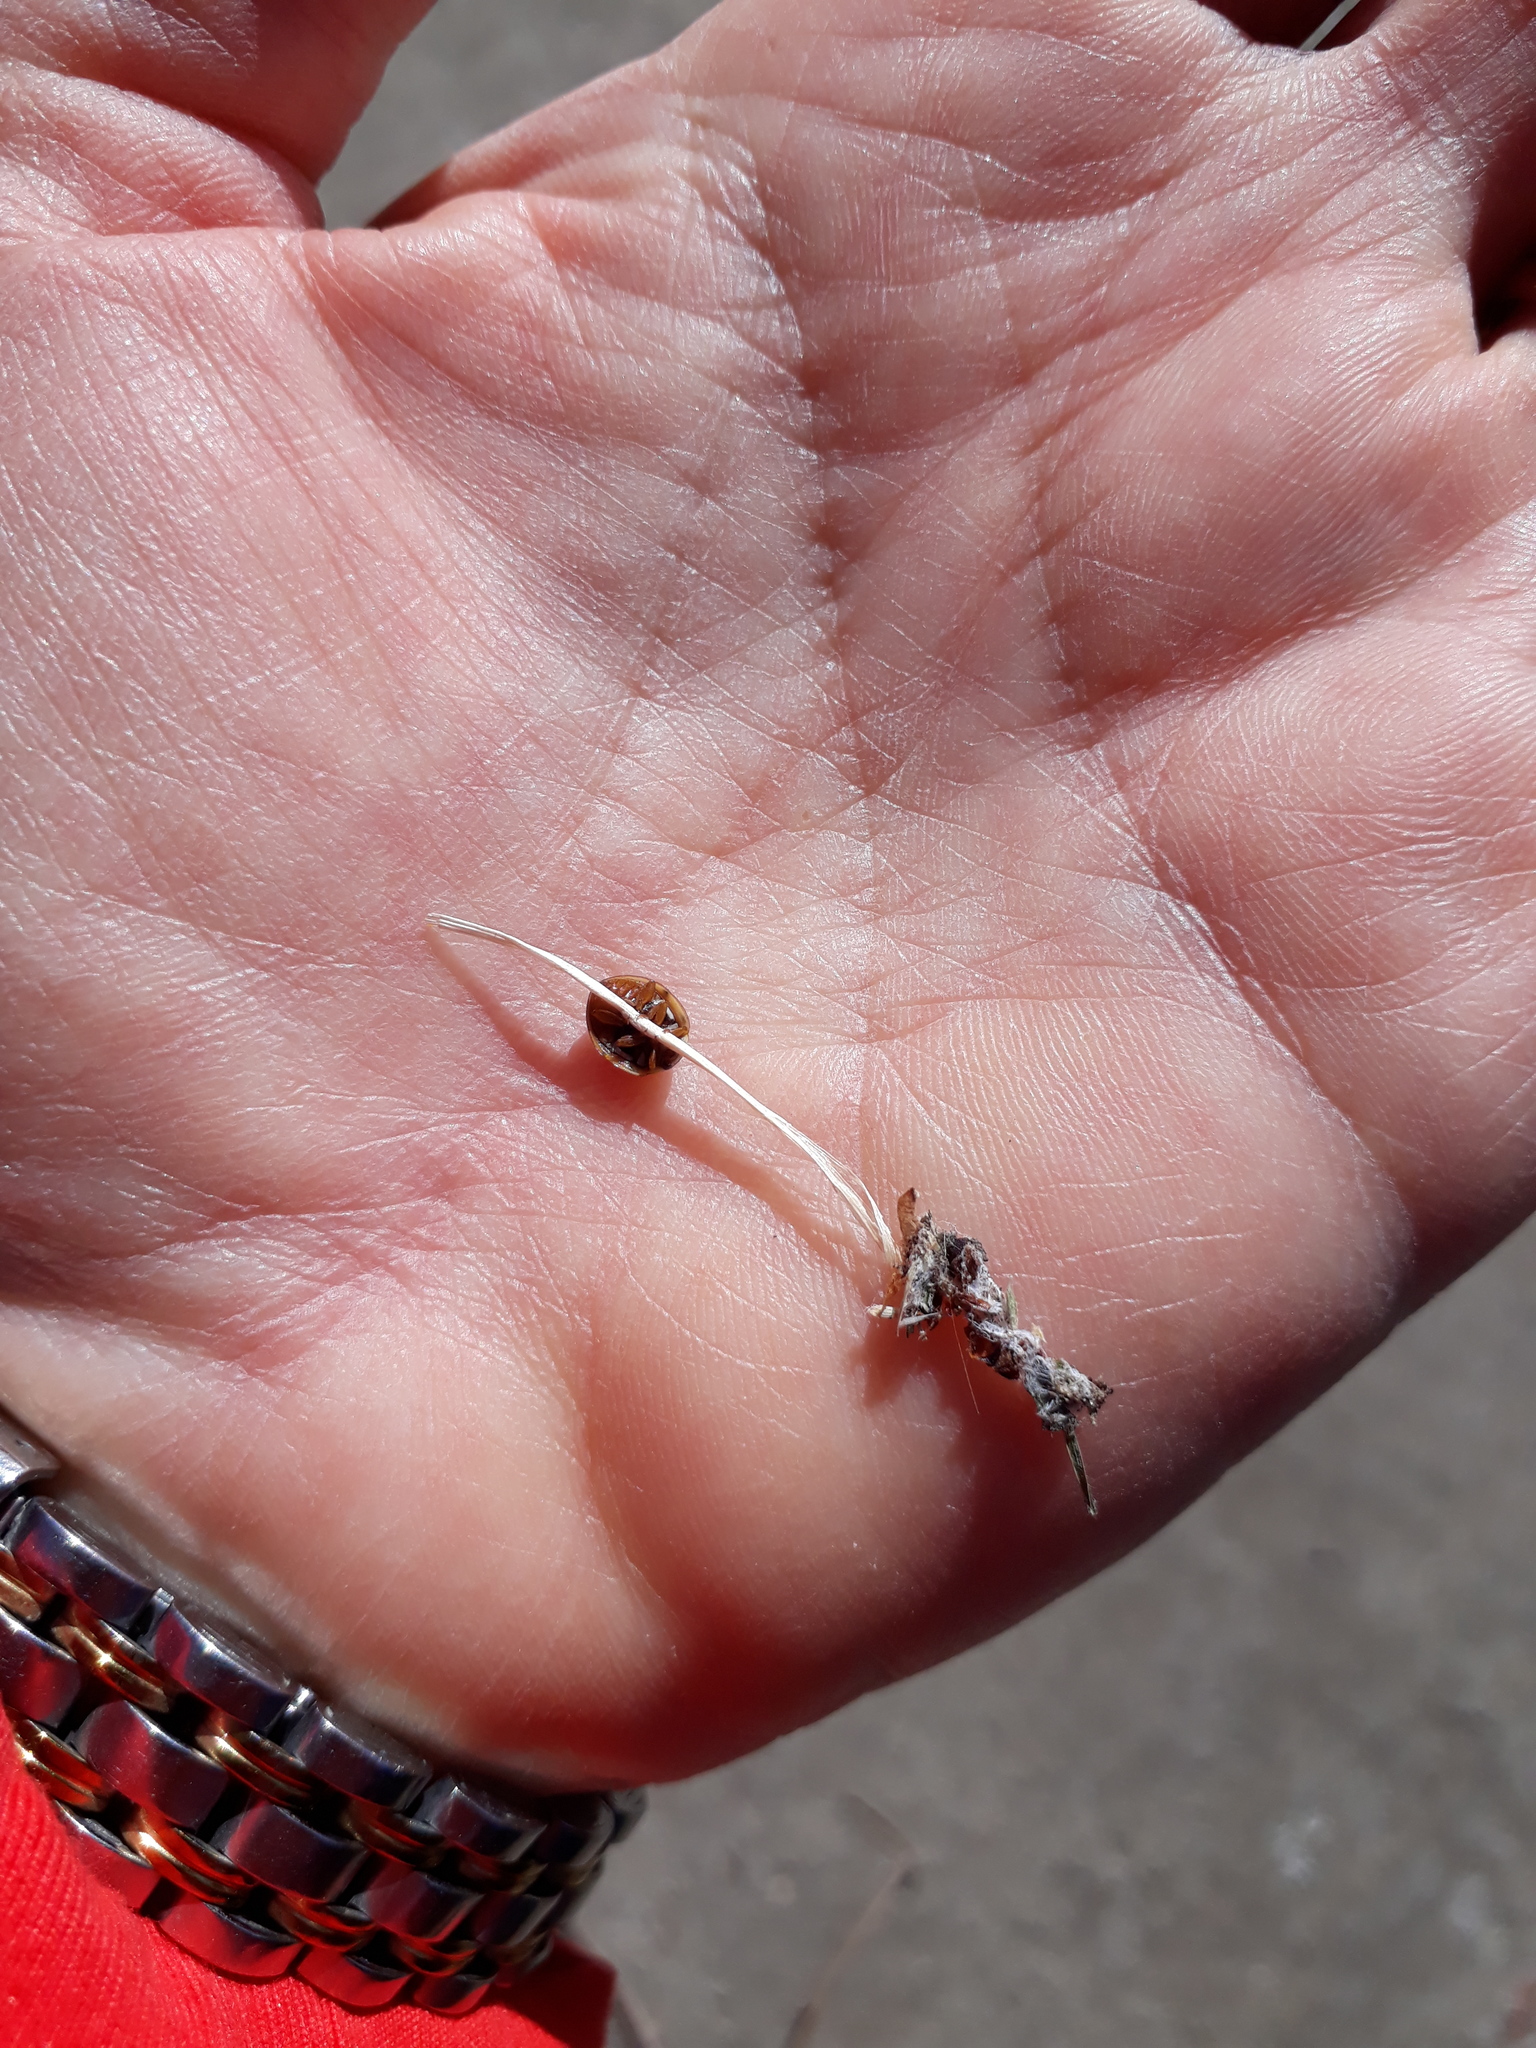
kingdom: Animalia
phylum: Arthropoda
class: Insecta
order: Coleoptera
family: Coccinellidae
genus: Olla
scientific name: Olla v-nigrum
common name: Ashy gray lady beetle
